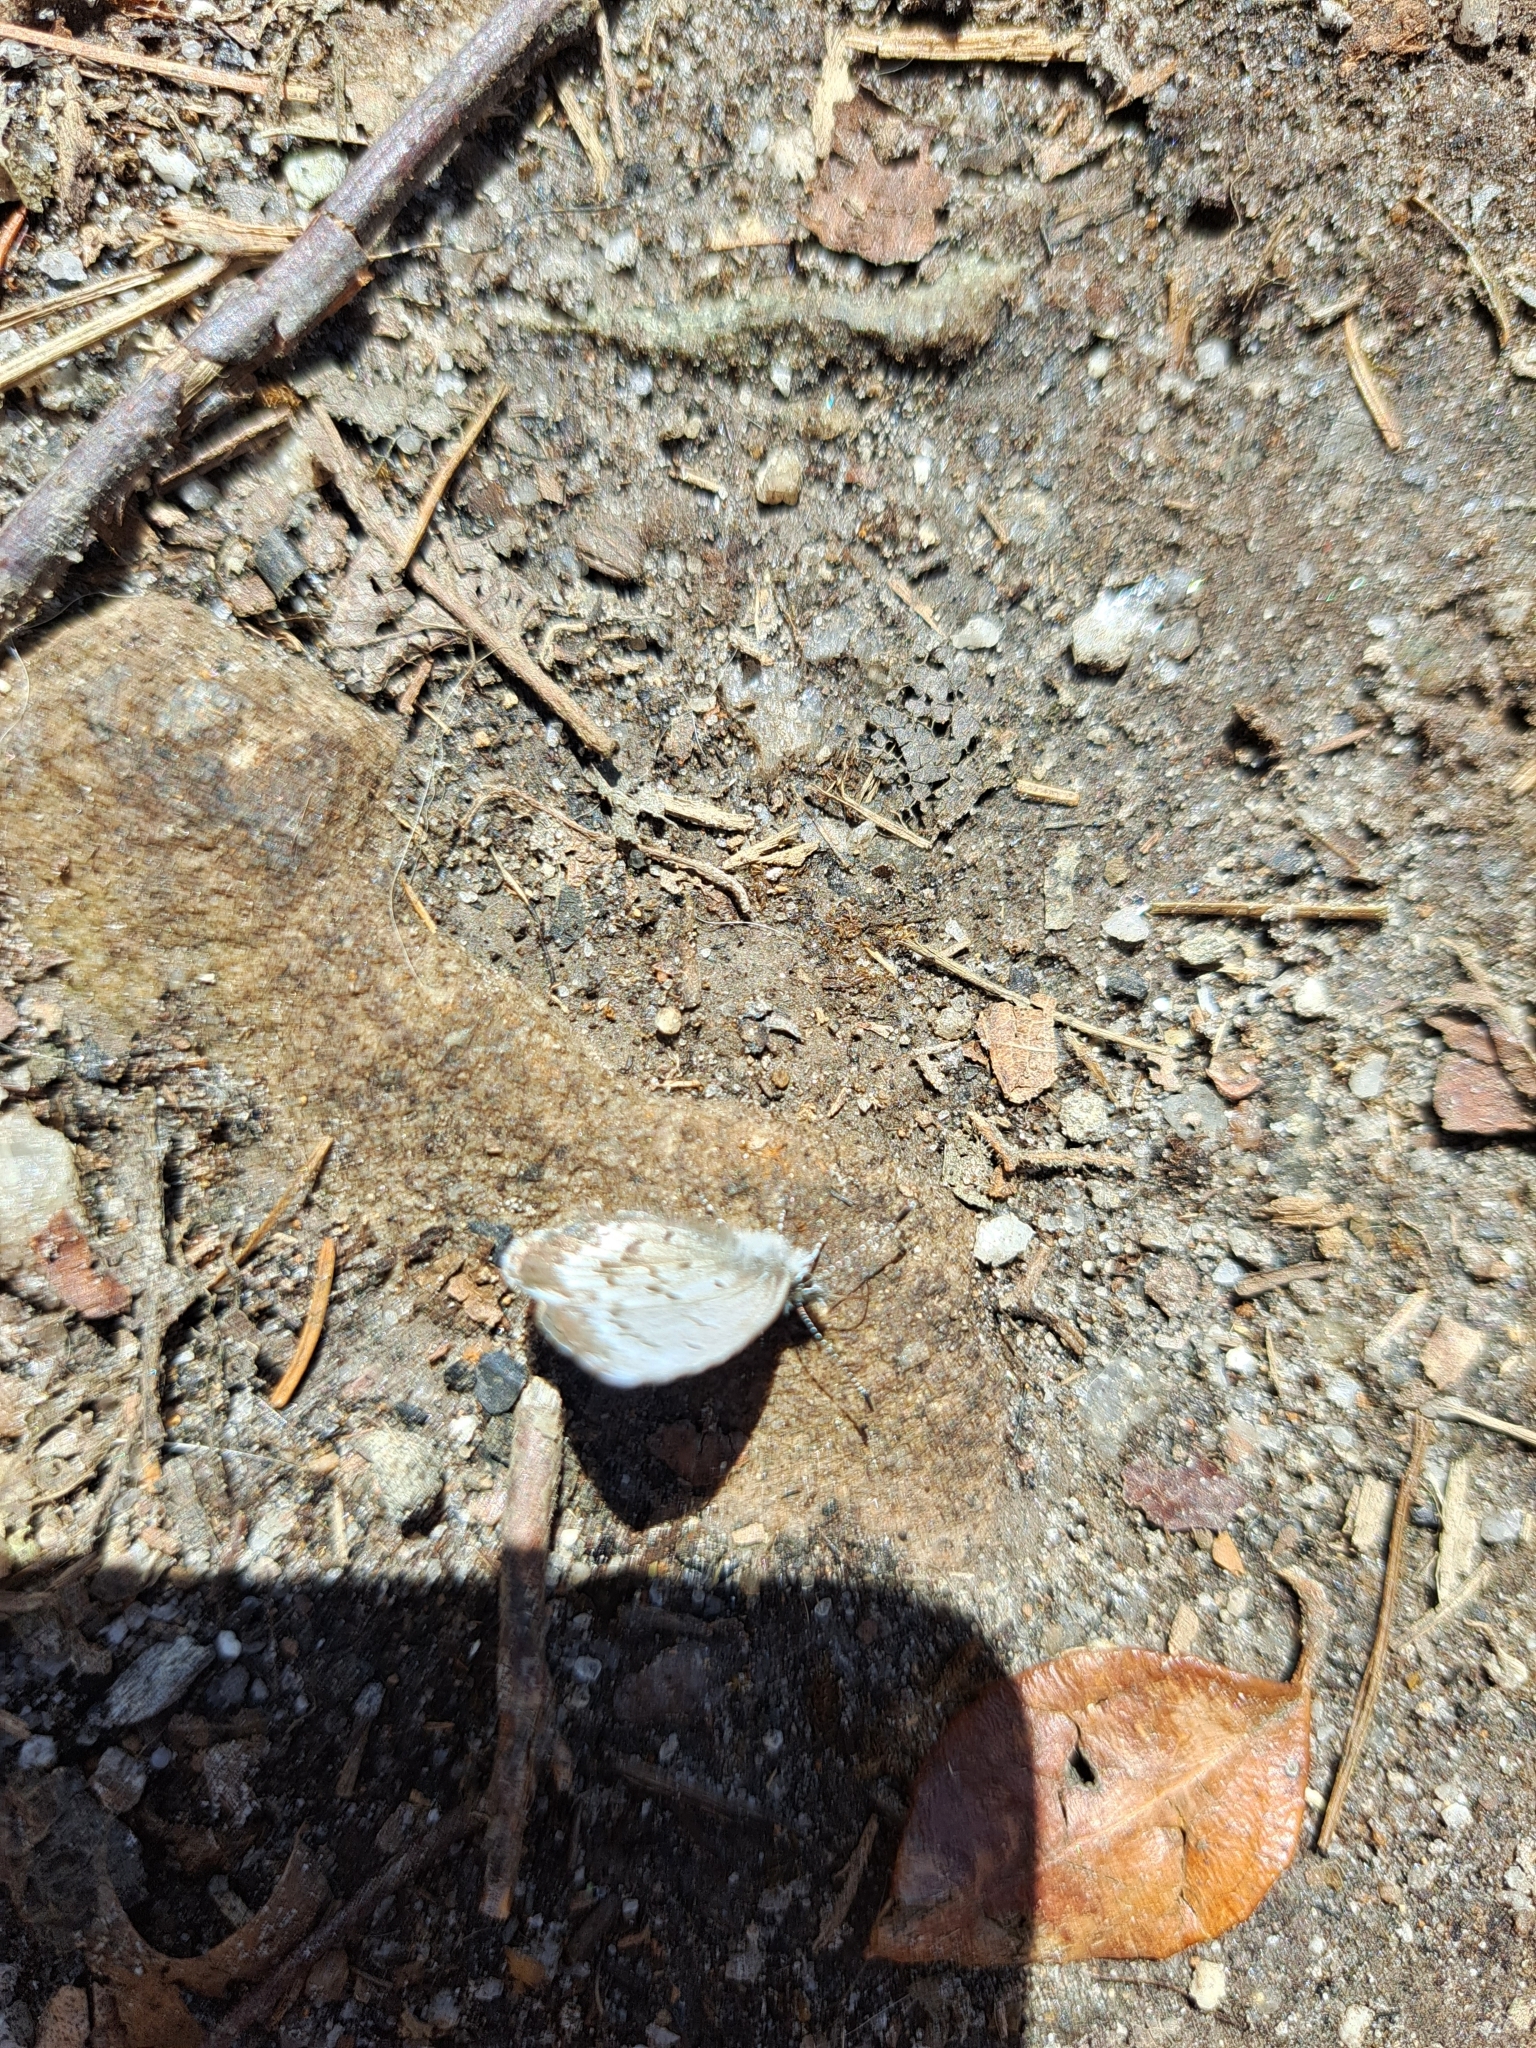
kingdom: Animalia
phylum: Arthropoda
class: Insecta
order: Lepidoptera
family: Lycaenidae
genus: Celastrina
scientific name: Celastrina lucia
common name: Lucia azure
